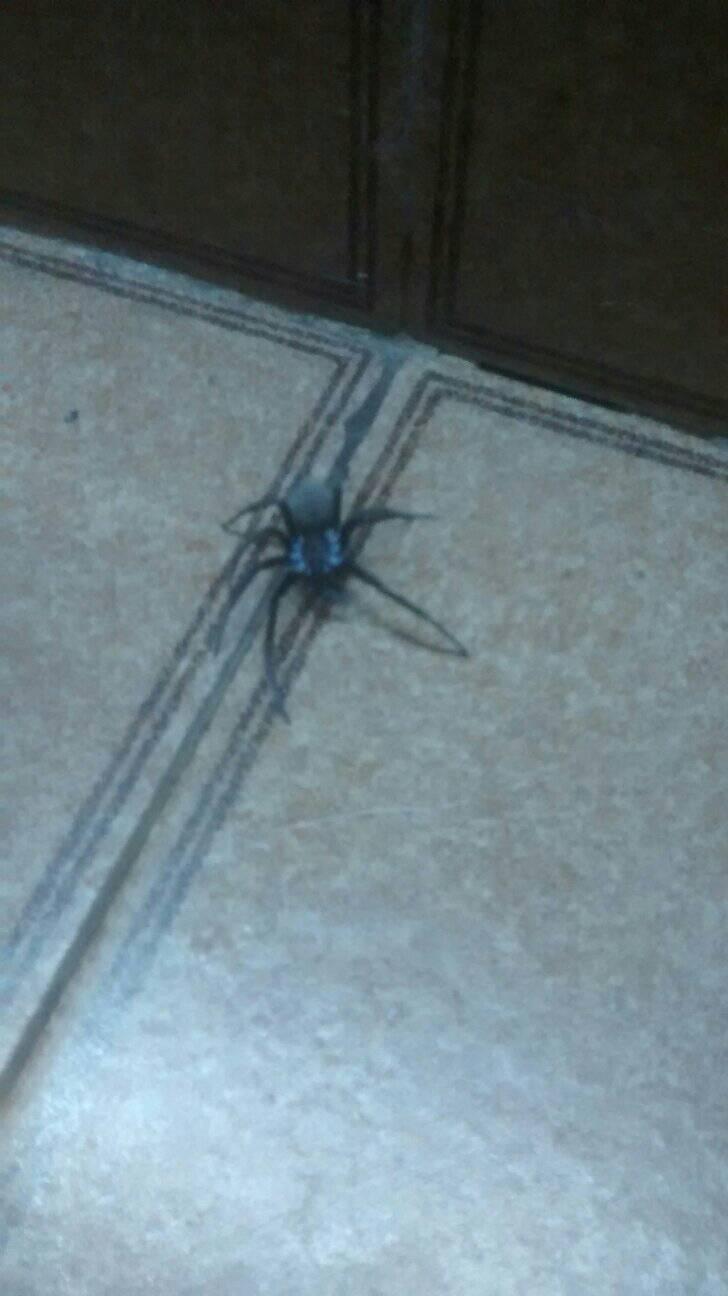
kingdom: Animalia
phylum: Arthropoda
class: Arachnida
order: Araneae
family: Filistatidae
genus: Kukulcania
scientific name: Kukulcania hibernalis
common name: Crevice weaver
